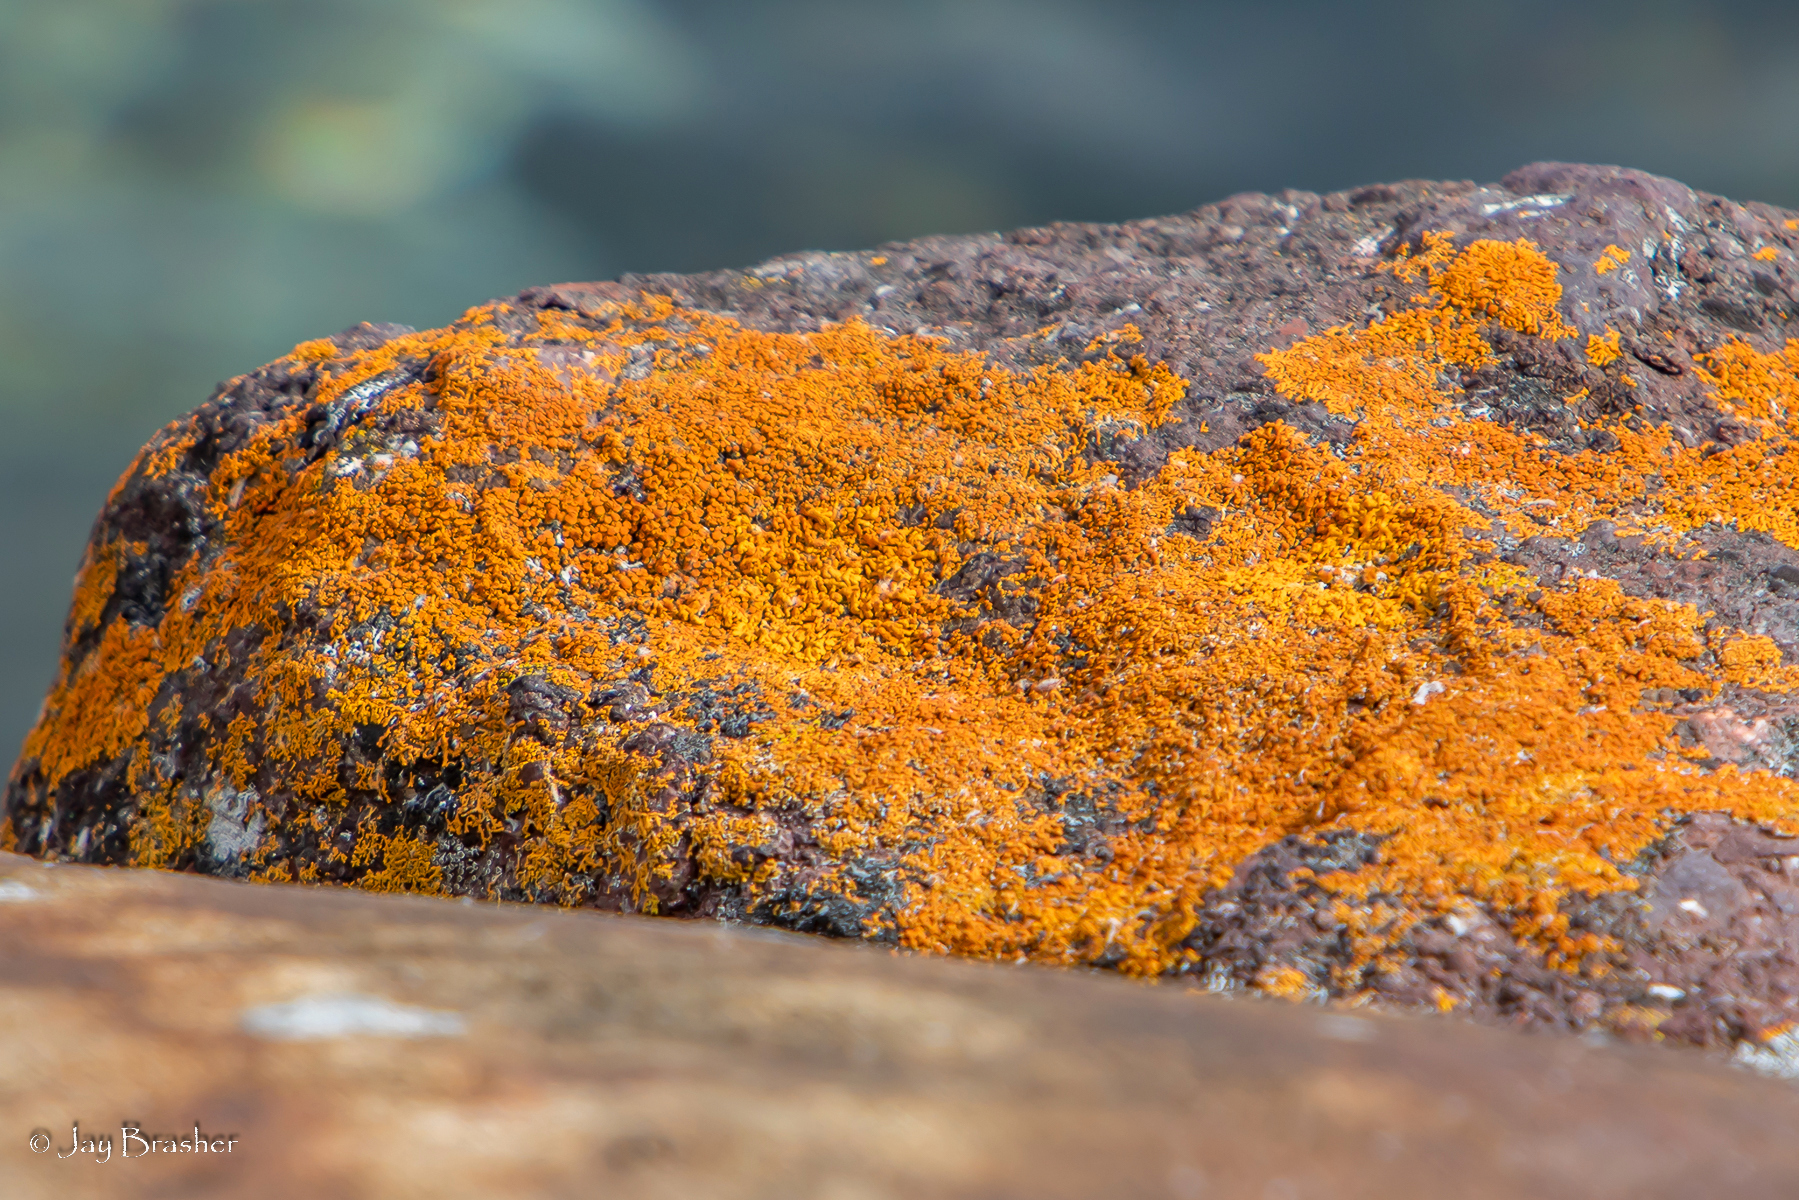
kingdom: Fungi
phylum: Ascomycota
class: Lecanoromycetes
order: Teloschistales
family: Teloschistaceae
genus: Xanthoria
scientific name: Xanthoria elegans
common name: Elegant sunburst lichen
